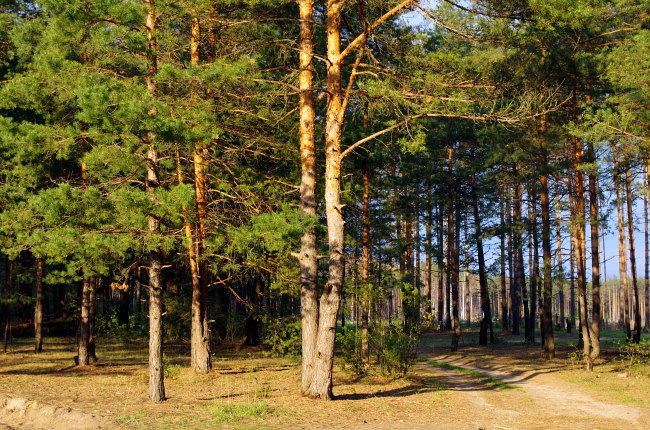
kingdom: Plantae
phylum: Tracheophyta
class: Pinopsida
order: Pinales
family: Pinaceae
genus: Pinus
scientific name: Pinus sylvestris
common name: Scots pine
